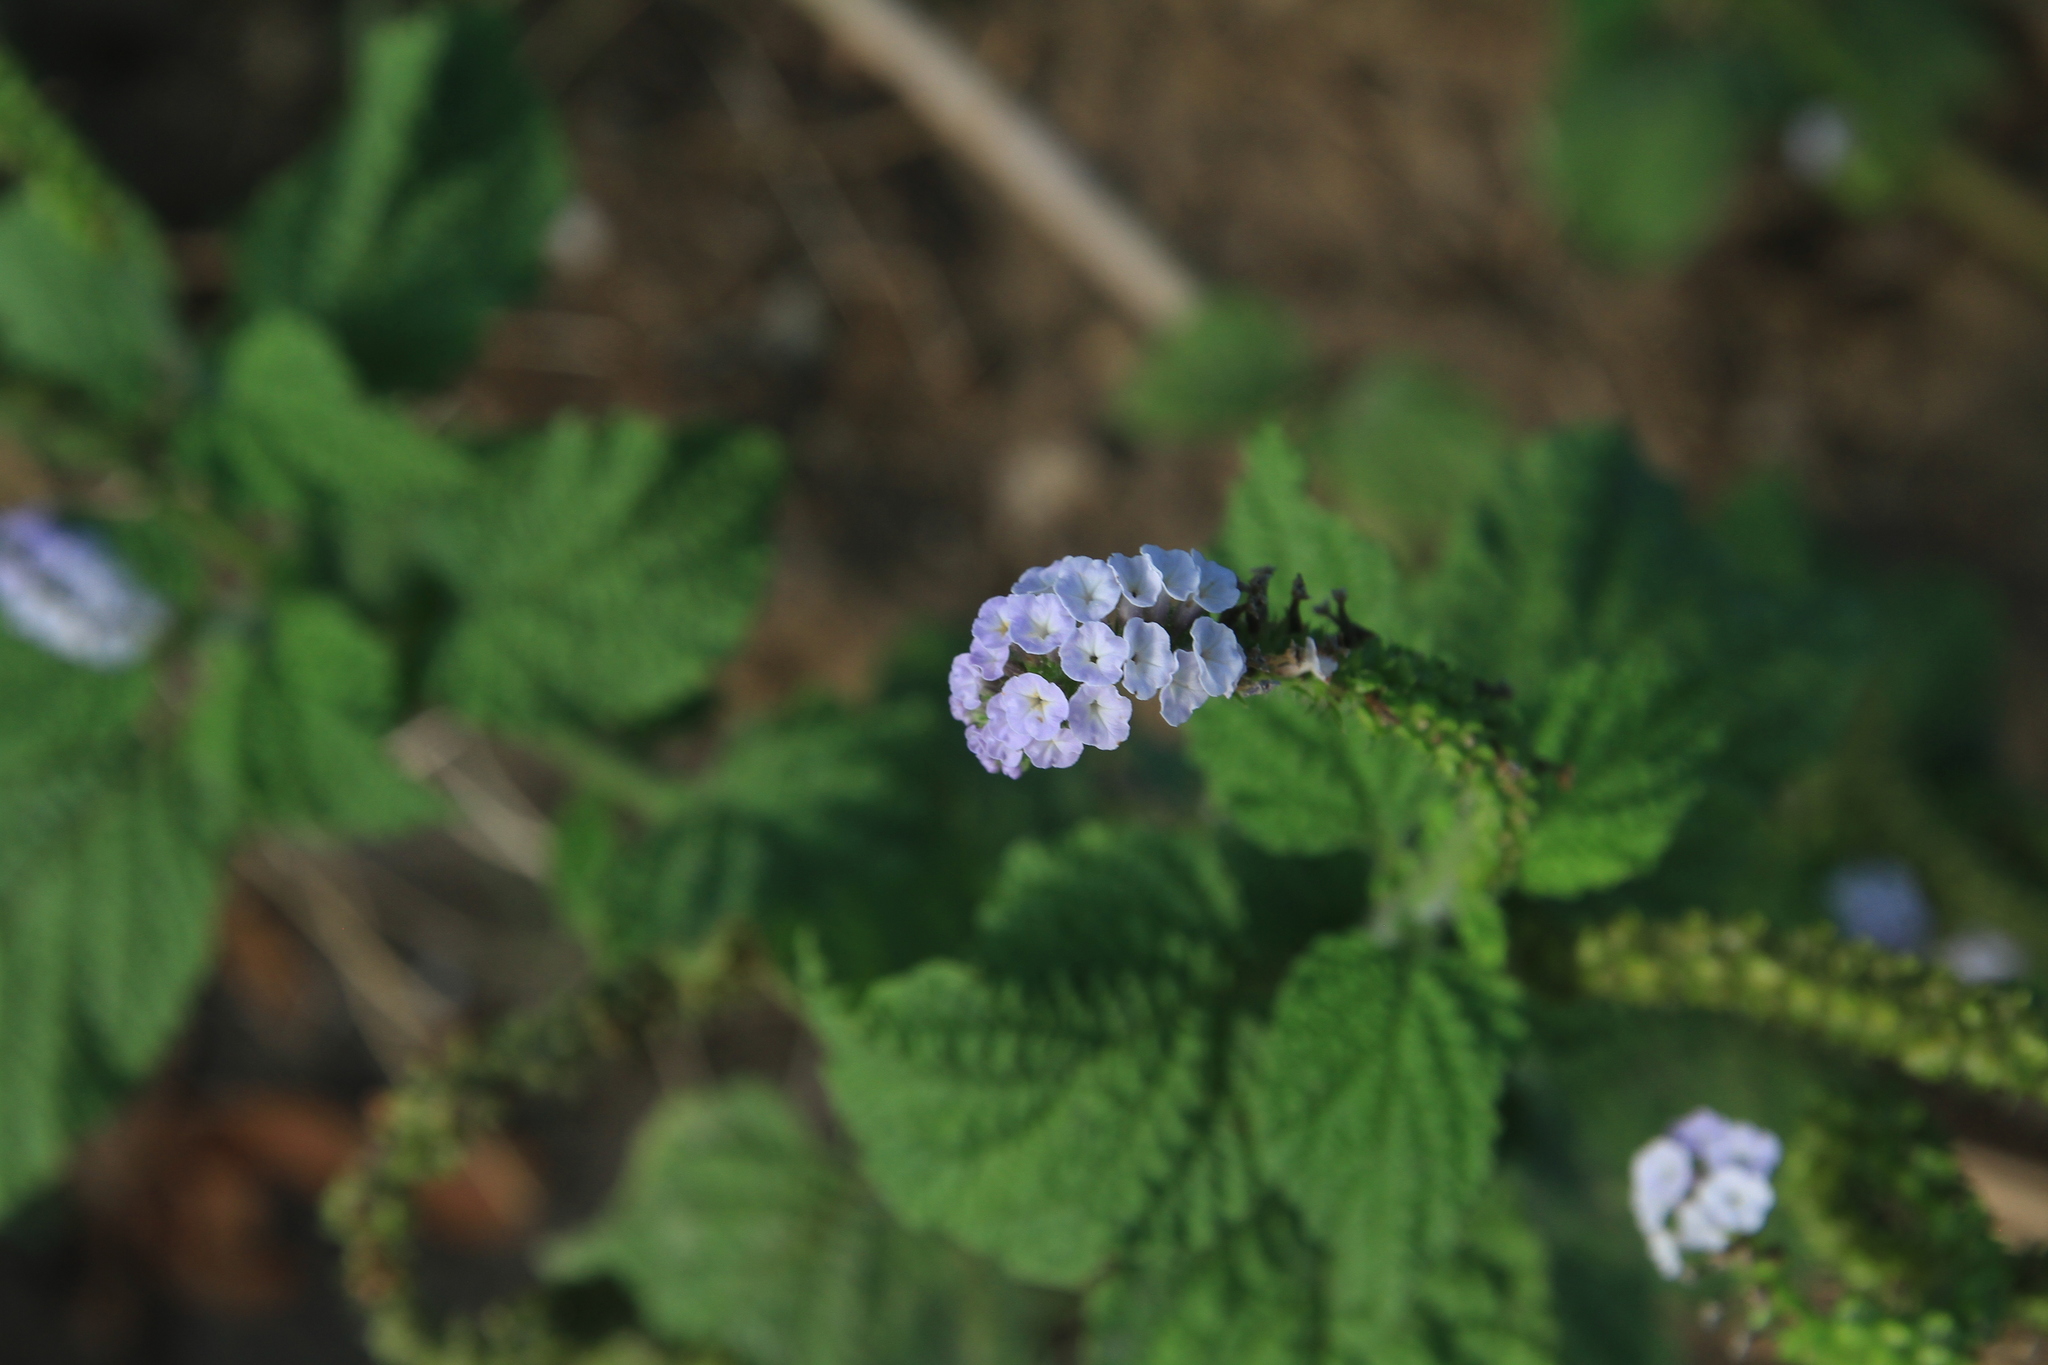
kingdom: Plantae
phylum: Tracheophyta
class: Magnoliopsida
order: Boraginales
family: Heliotropiaceae
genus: Heliotropium
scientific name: Heliotropium indicum
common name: Indian heliotrope
